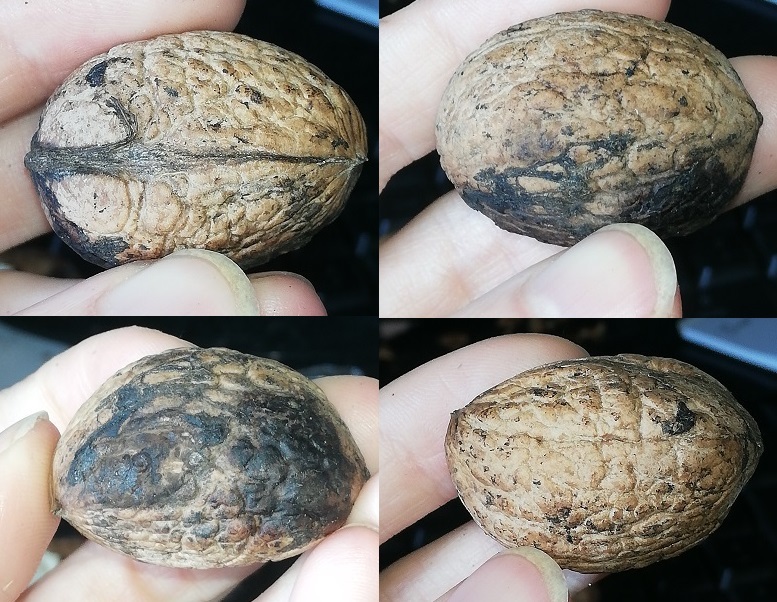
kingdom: Plantae
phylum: Tracheophyta
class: Magnoliopsida
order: Fagales
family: Juglandaceae
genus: Juglans
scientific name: Juglans regia
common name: Walnut
